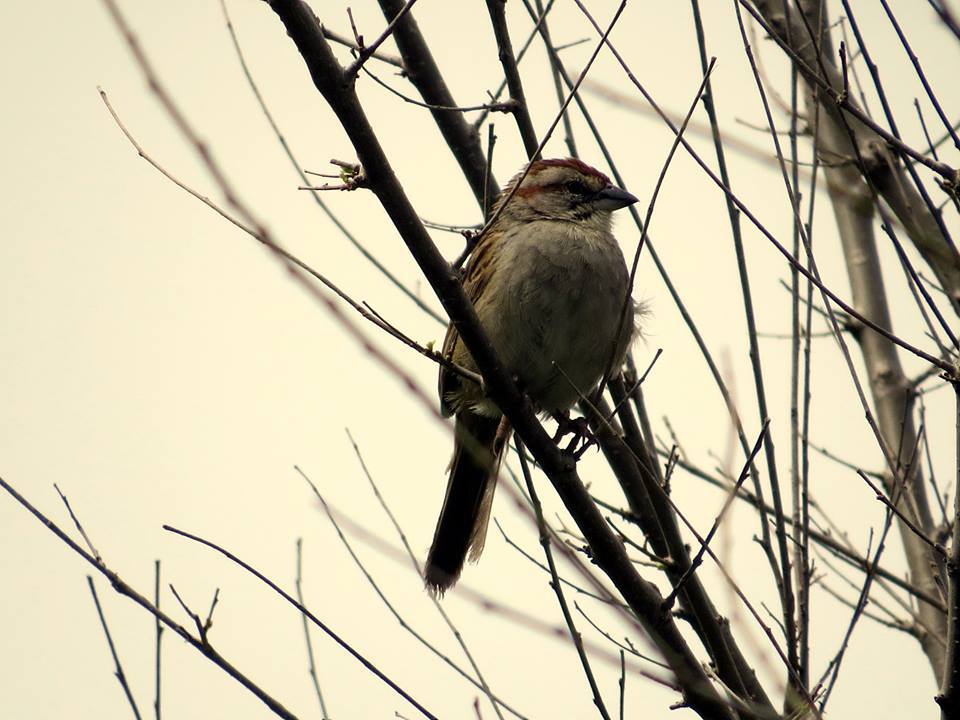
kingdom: Animalia
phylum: Chordata
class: Aves
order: Passeriformes
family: Passerellidae
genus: Rhynchospiza
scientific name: Rhynchospiza strigiceps
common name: Stripe-capped sparrow
